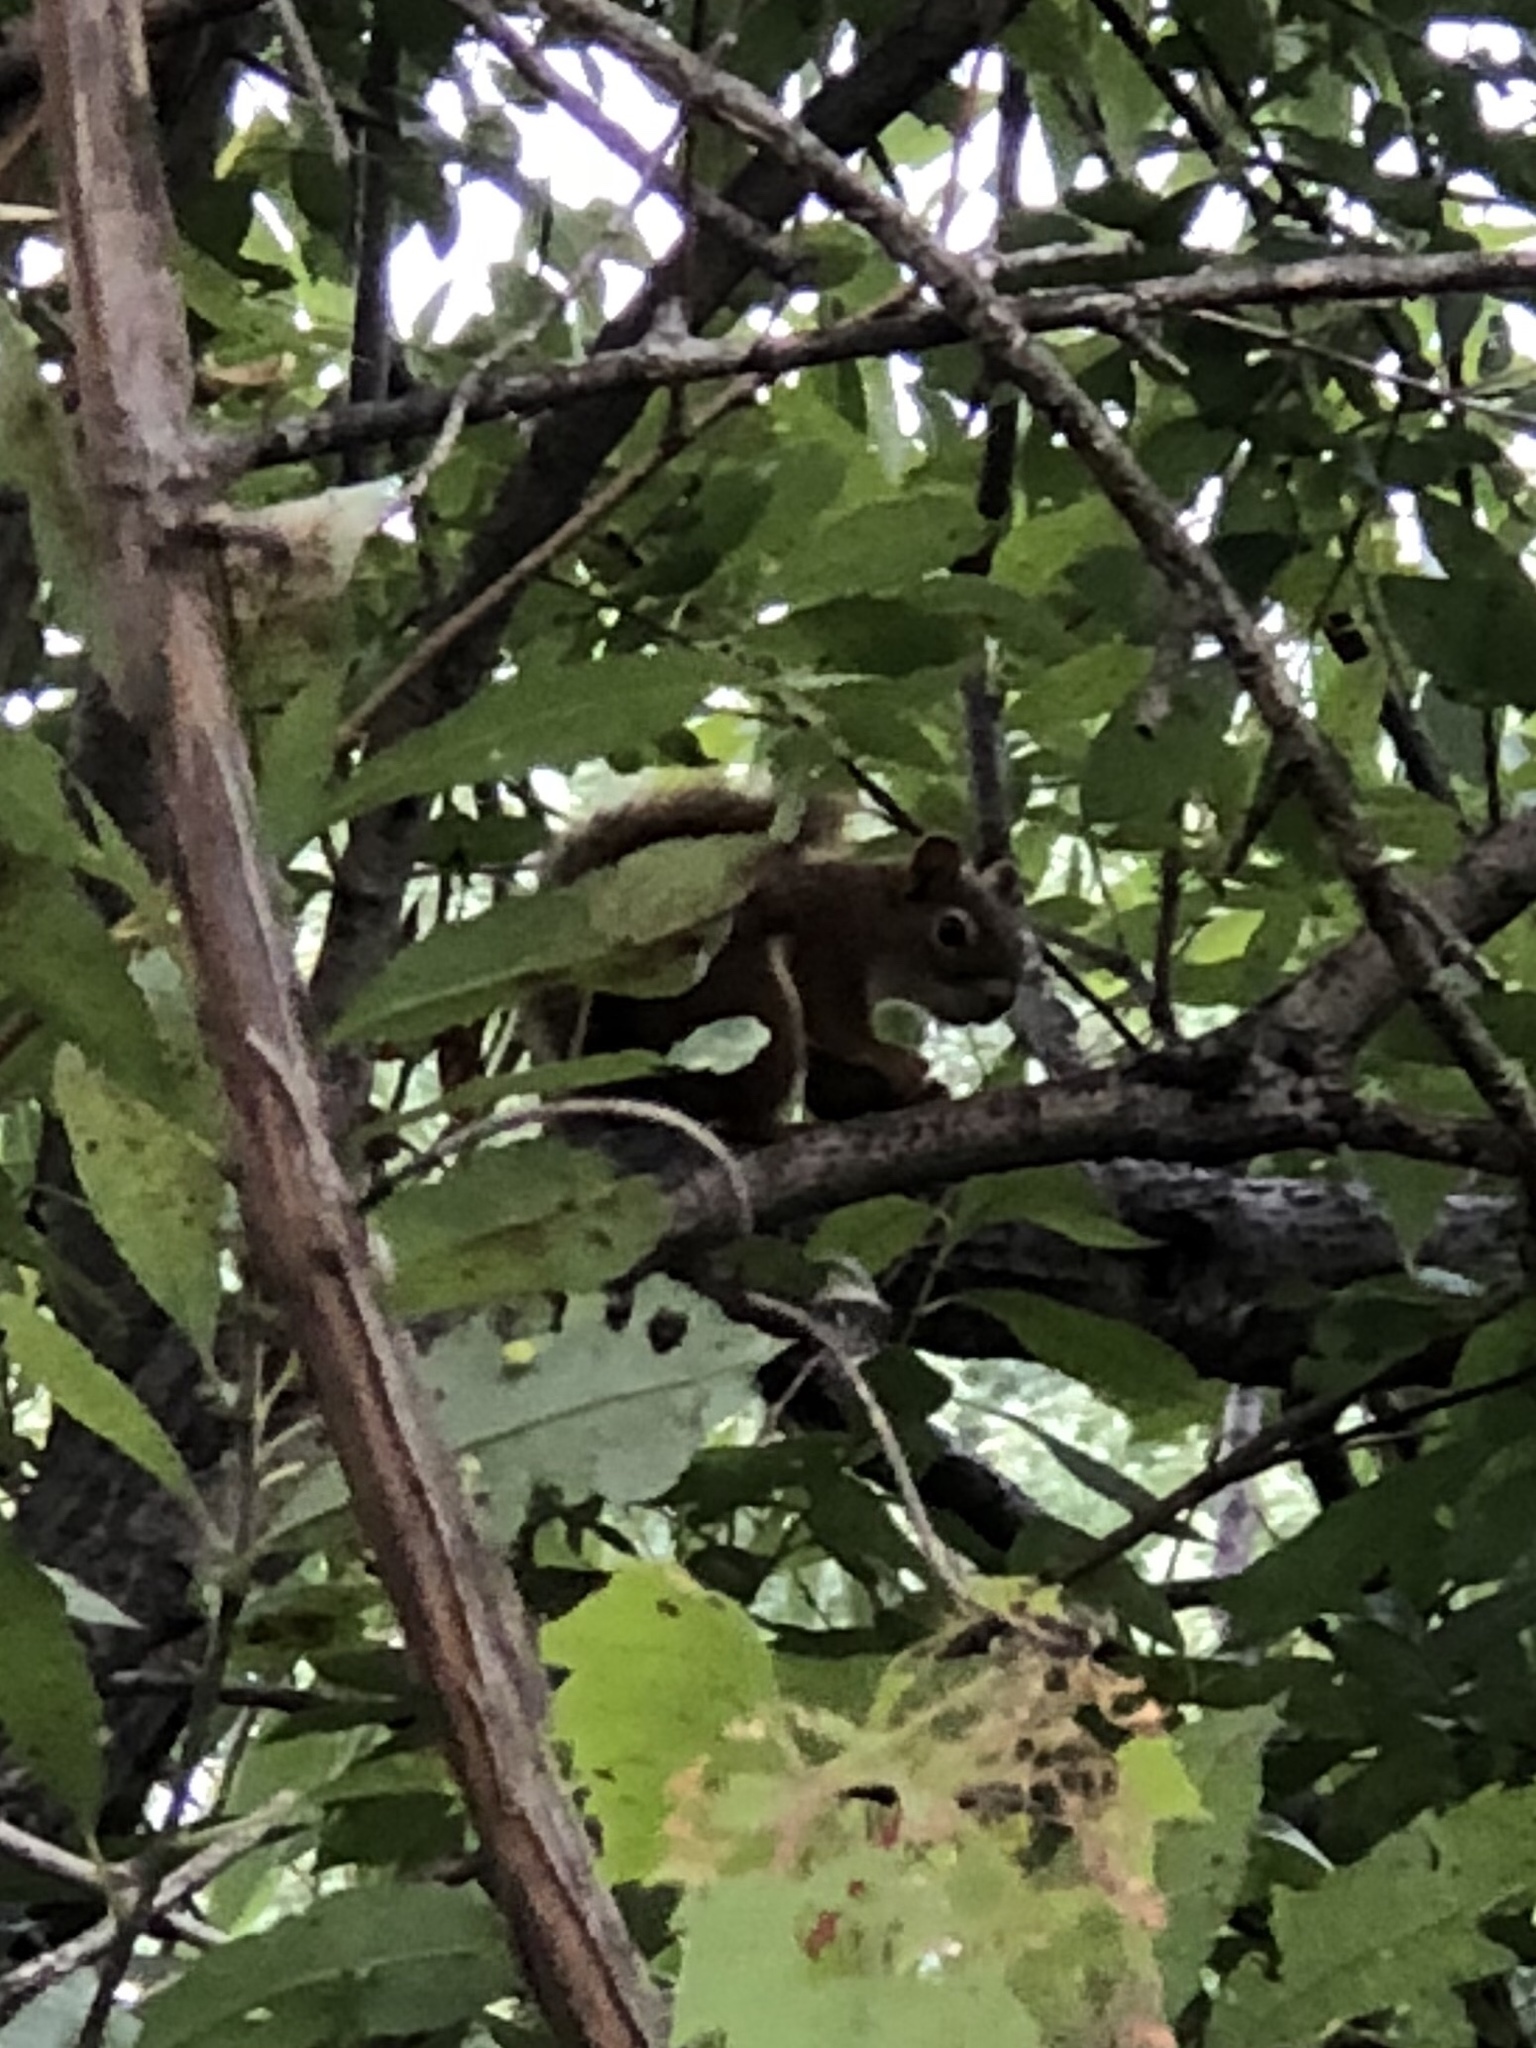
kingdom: Animalia
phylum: Chordata
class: Mammalia
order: Rodentia
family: Sciuridae
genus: Tamiasciurus
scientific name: Tamiasciurus hudsonicus
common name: Red squirrel
